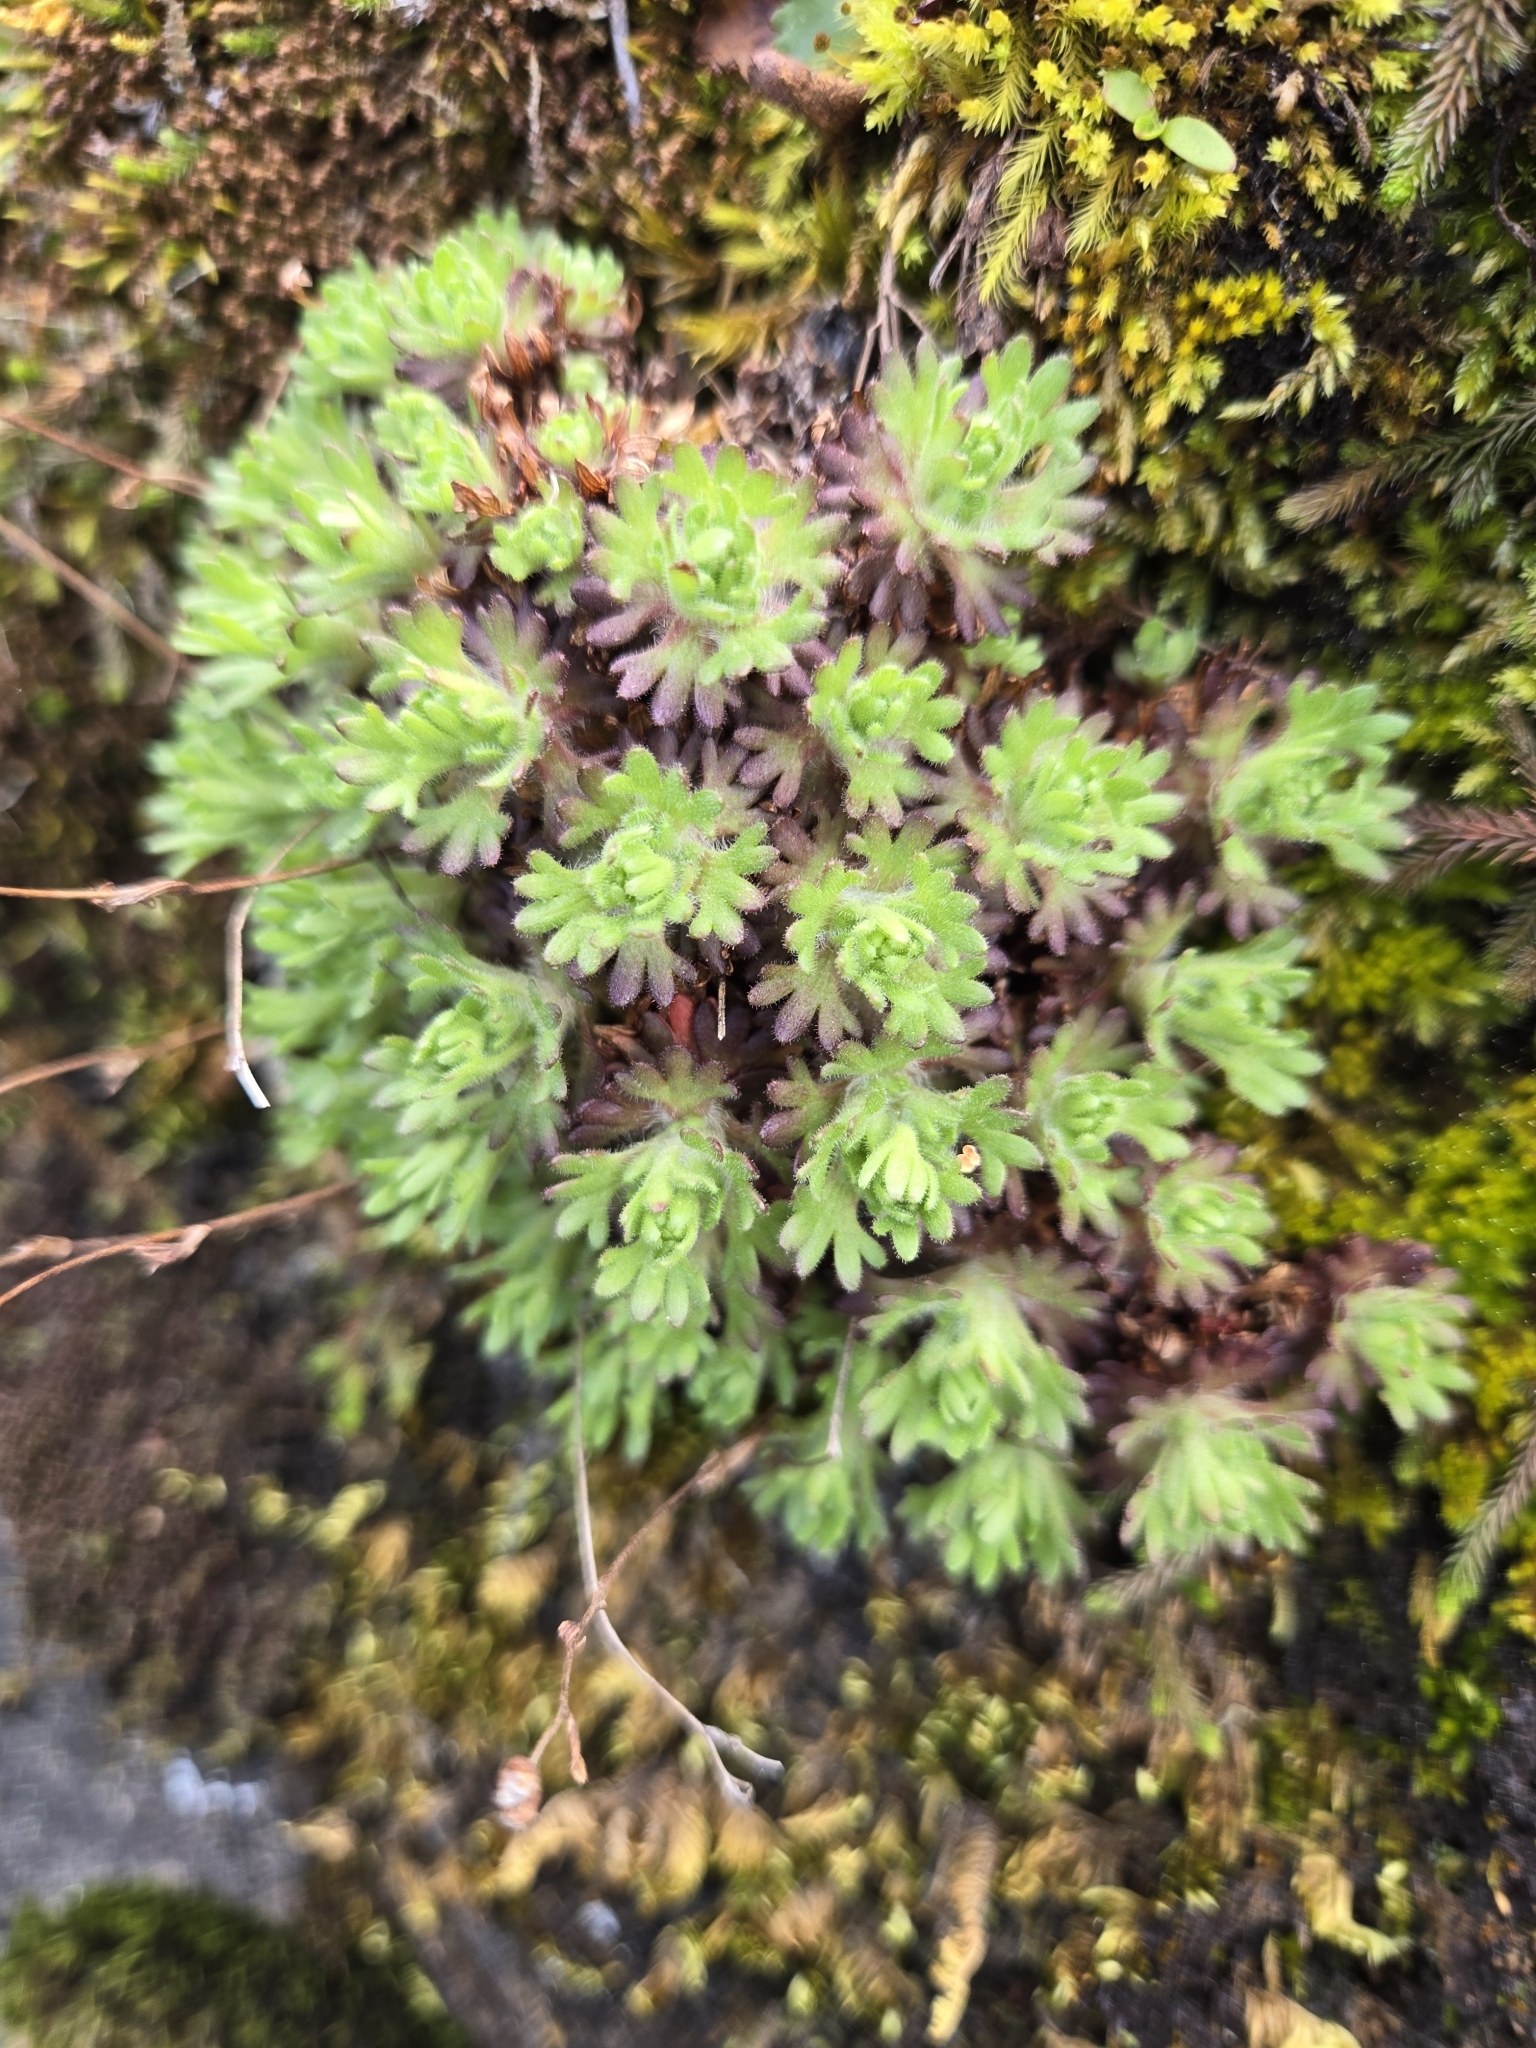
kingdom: Plantae
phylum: Tracheophyta
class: Magnoliopsida
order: Saxifragales
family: Saxifragaceae
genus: Saxifraga
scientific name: Saxifraga cespitosa
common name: Tufted saxifrage
